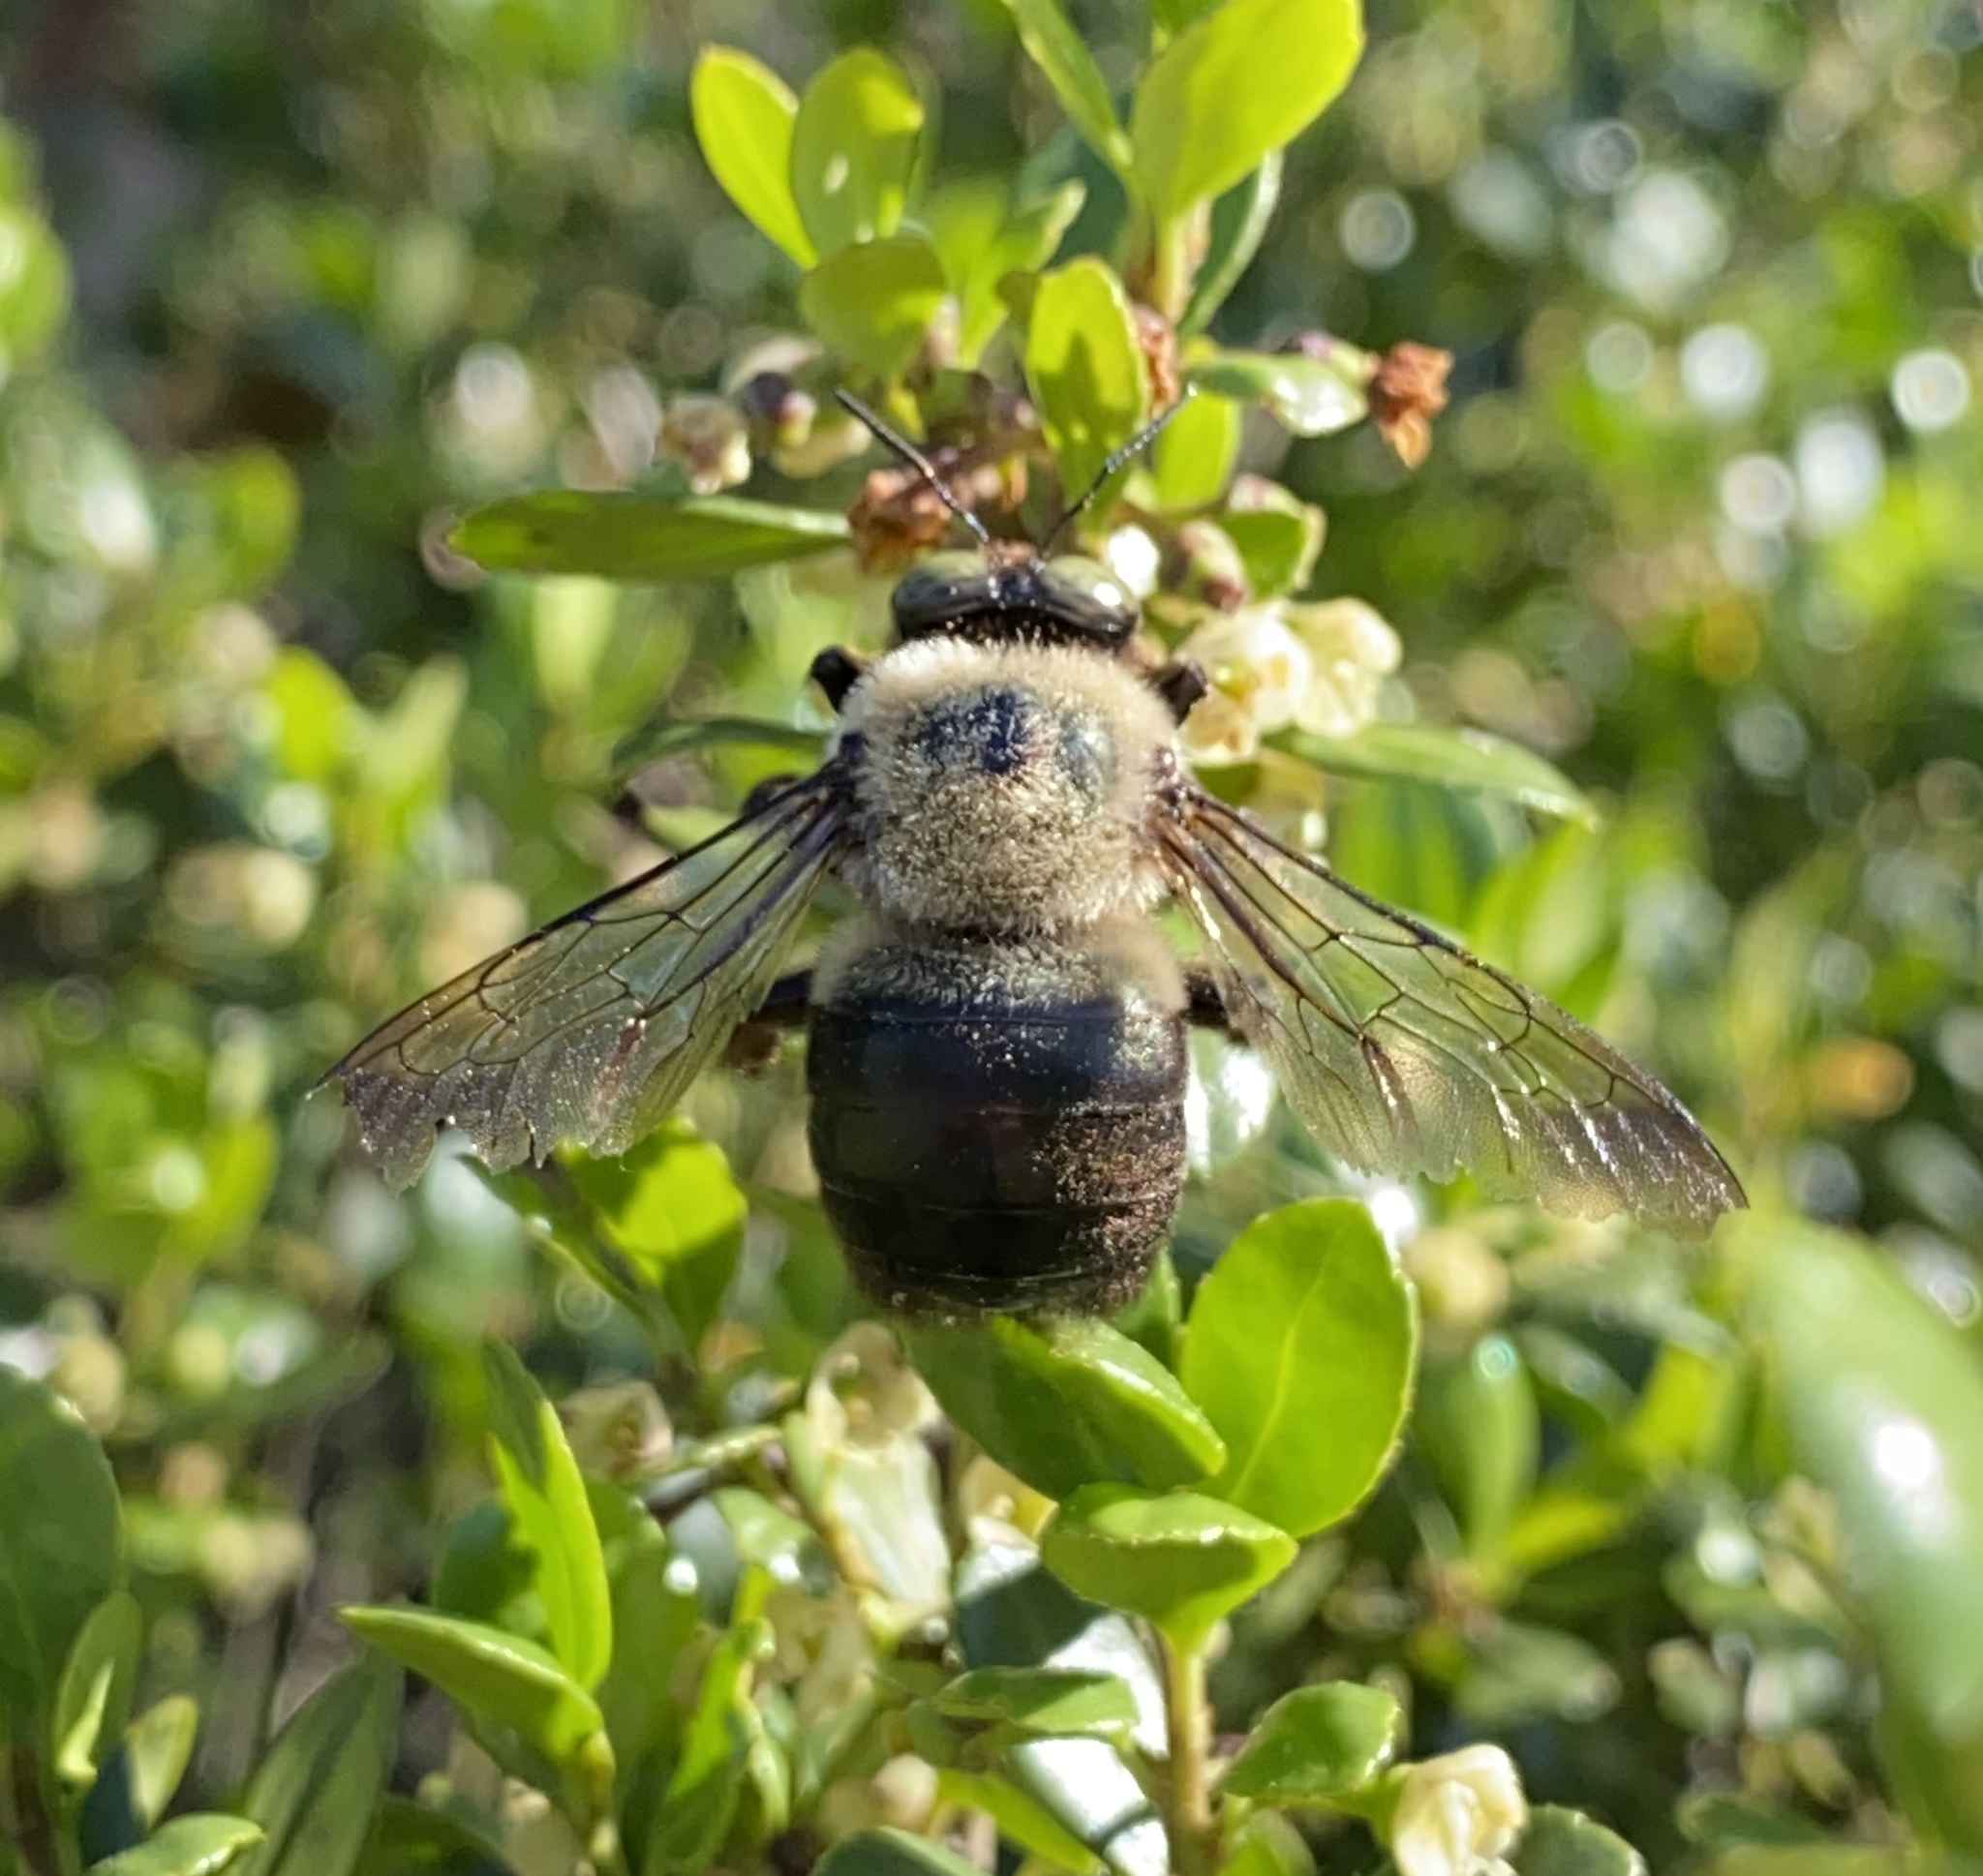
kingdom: Animalia
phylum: Arthropoda
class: Insecta
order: Hymenoptera
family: Apidae
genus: Xylocopa
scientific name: Xylocopa virginica
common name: Carpenter bee
